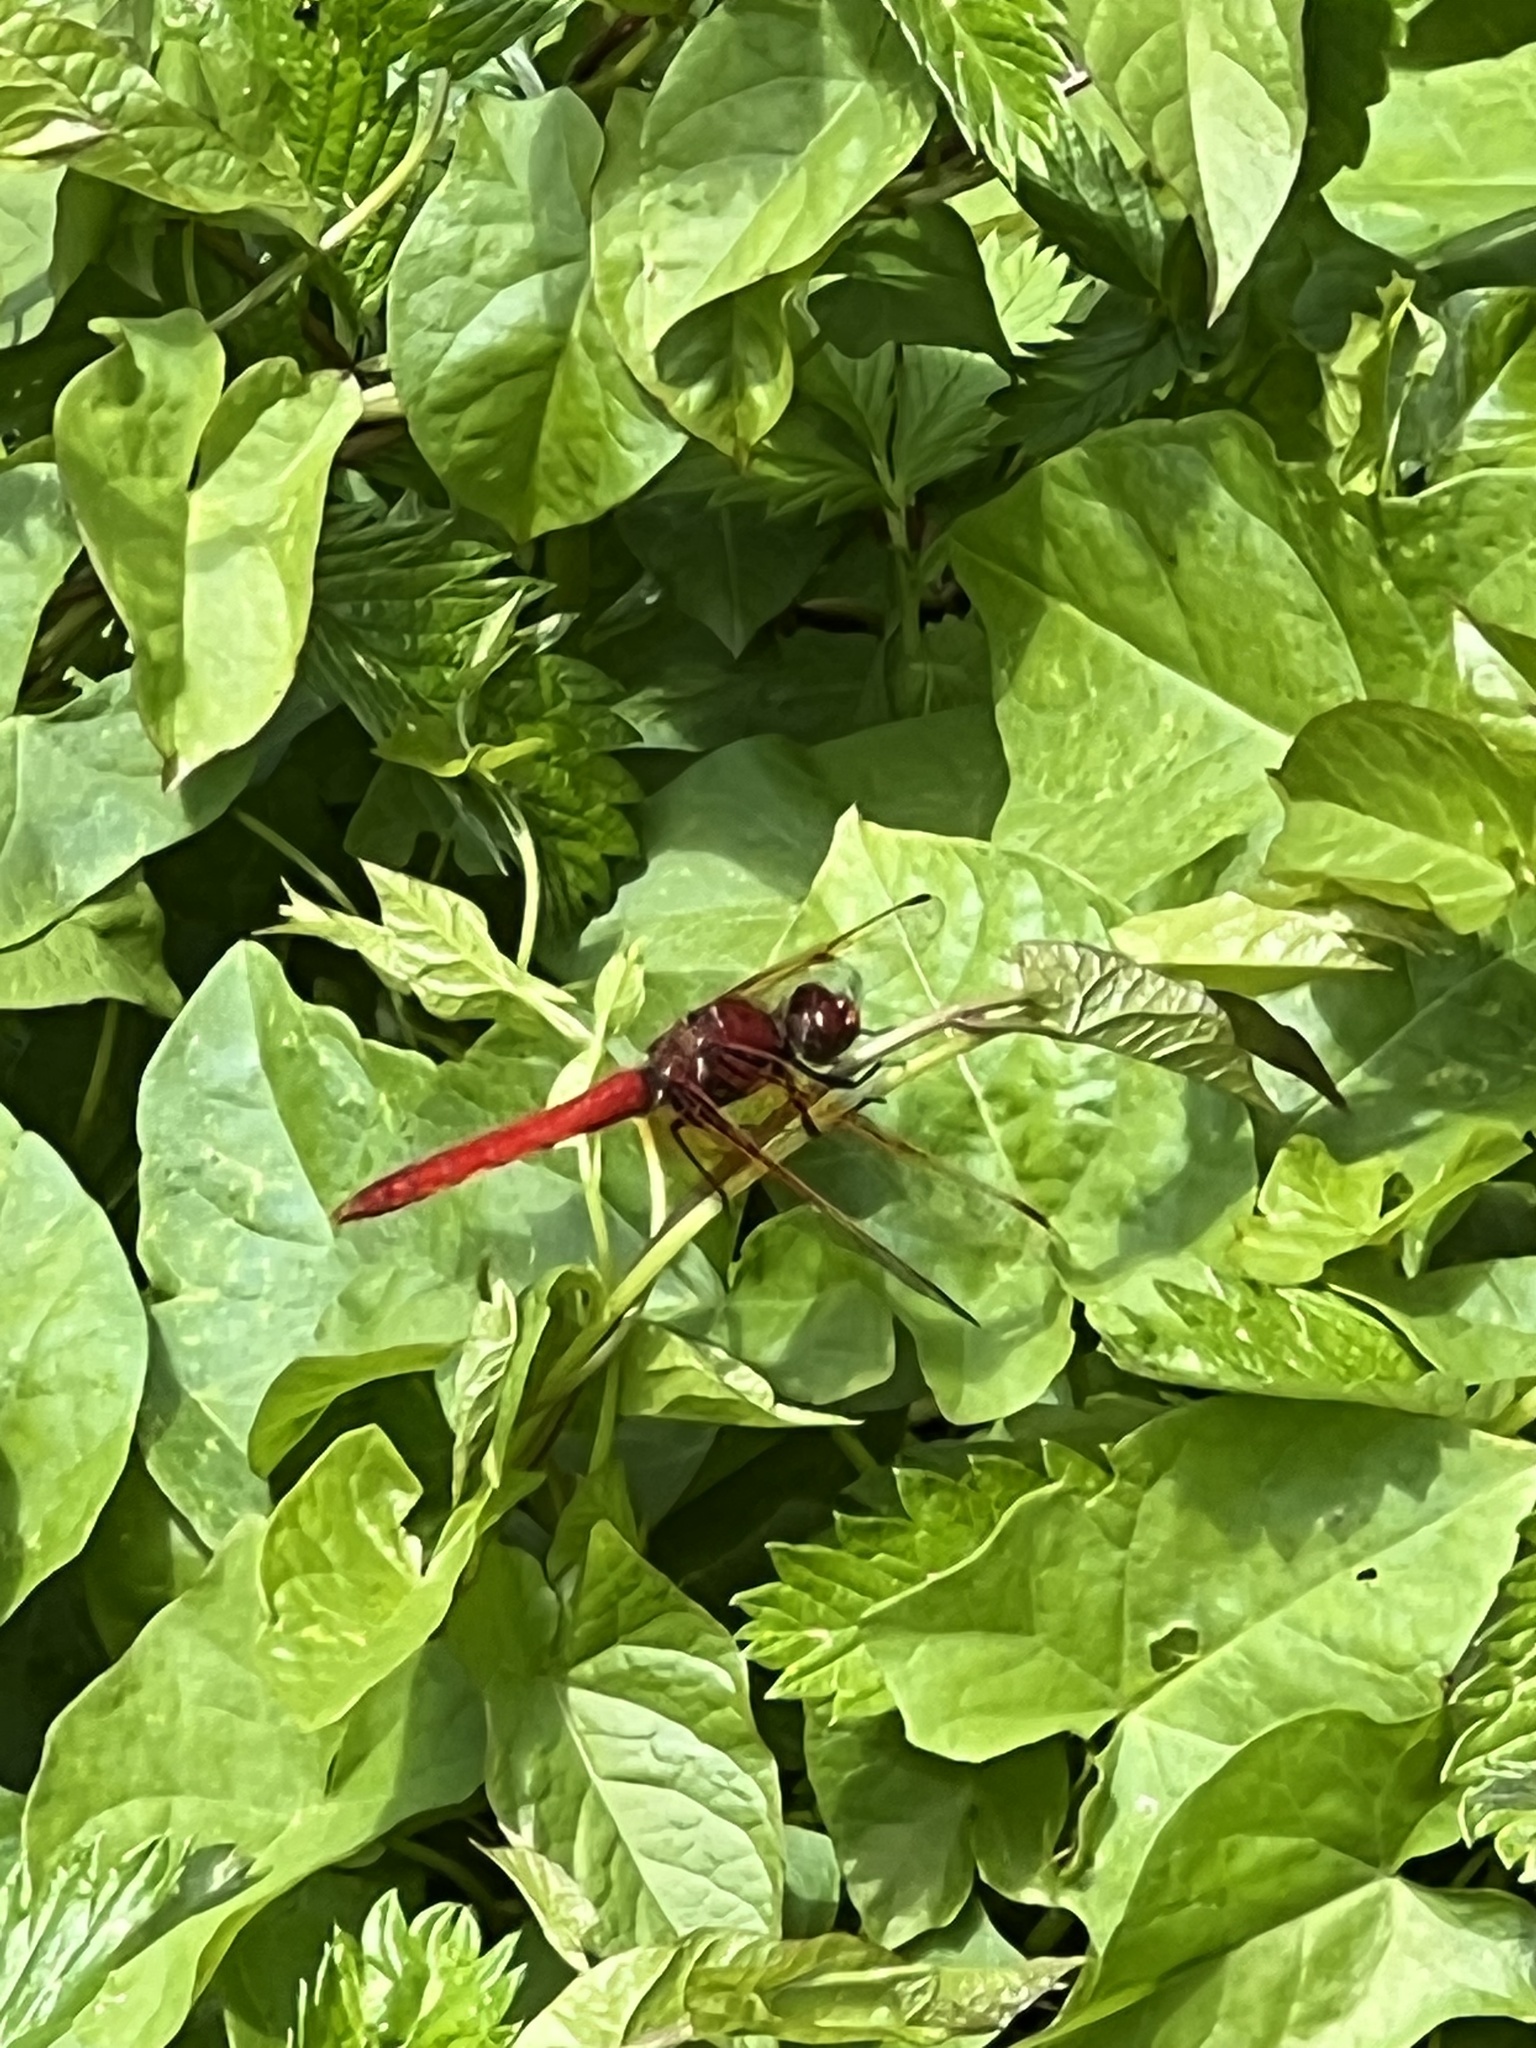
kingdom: Animalia
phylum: Arthropoda
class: Insecta
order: Odonata
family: Libellulidae
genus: Sympetrum
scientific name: Sympetrum illotum
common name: Cardinal meadowhawk
